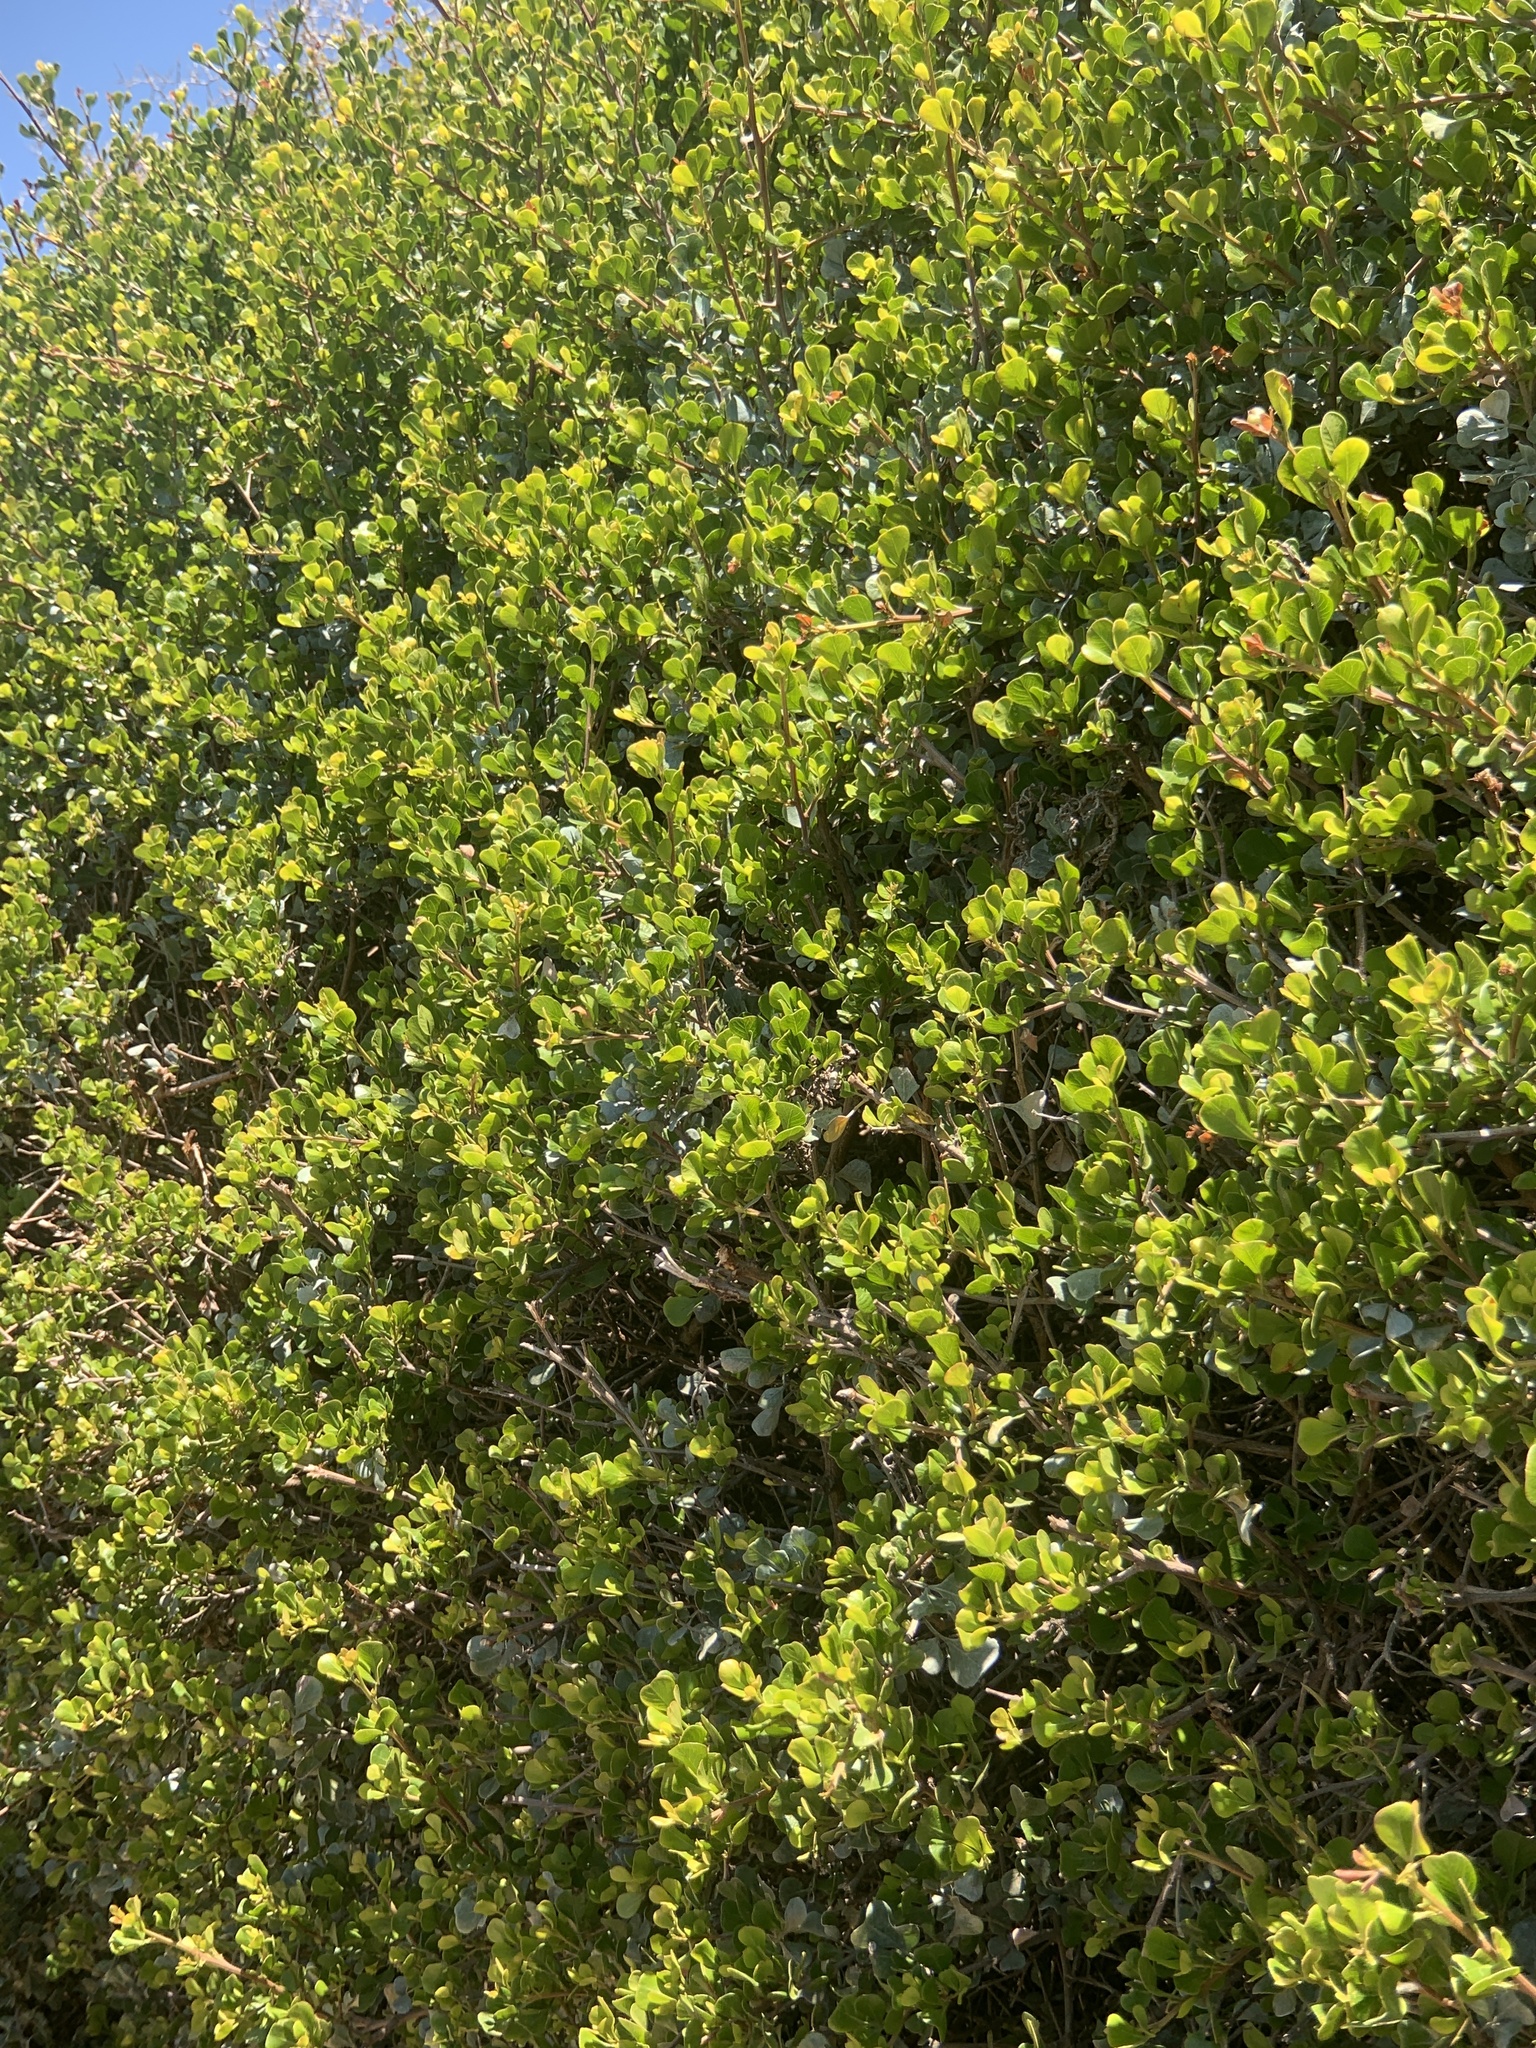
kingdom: Plantae
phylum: Tracheophyta
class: Magnoliopsida
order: Sapindales
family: Anacardiaceae
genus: Searsia
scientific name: Searsia glauca
